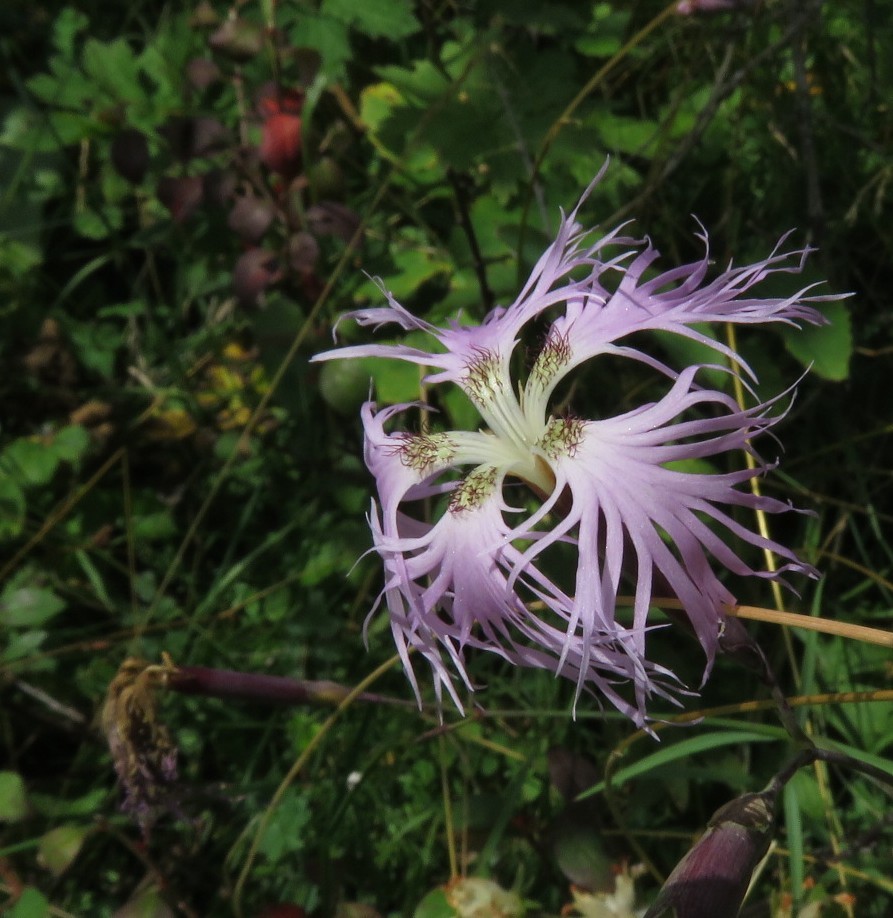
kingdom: Plantae
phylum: Tracheophyta
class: Magnoliopsida
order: Caryophyllales
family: Caryophyllaceae
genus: Dianthus
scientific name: Dianthus superbus
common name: Fringed pink
